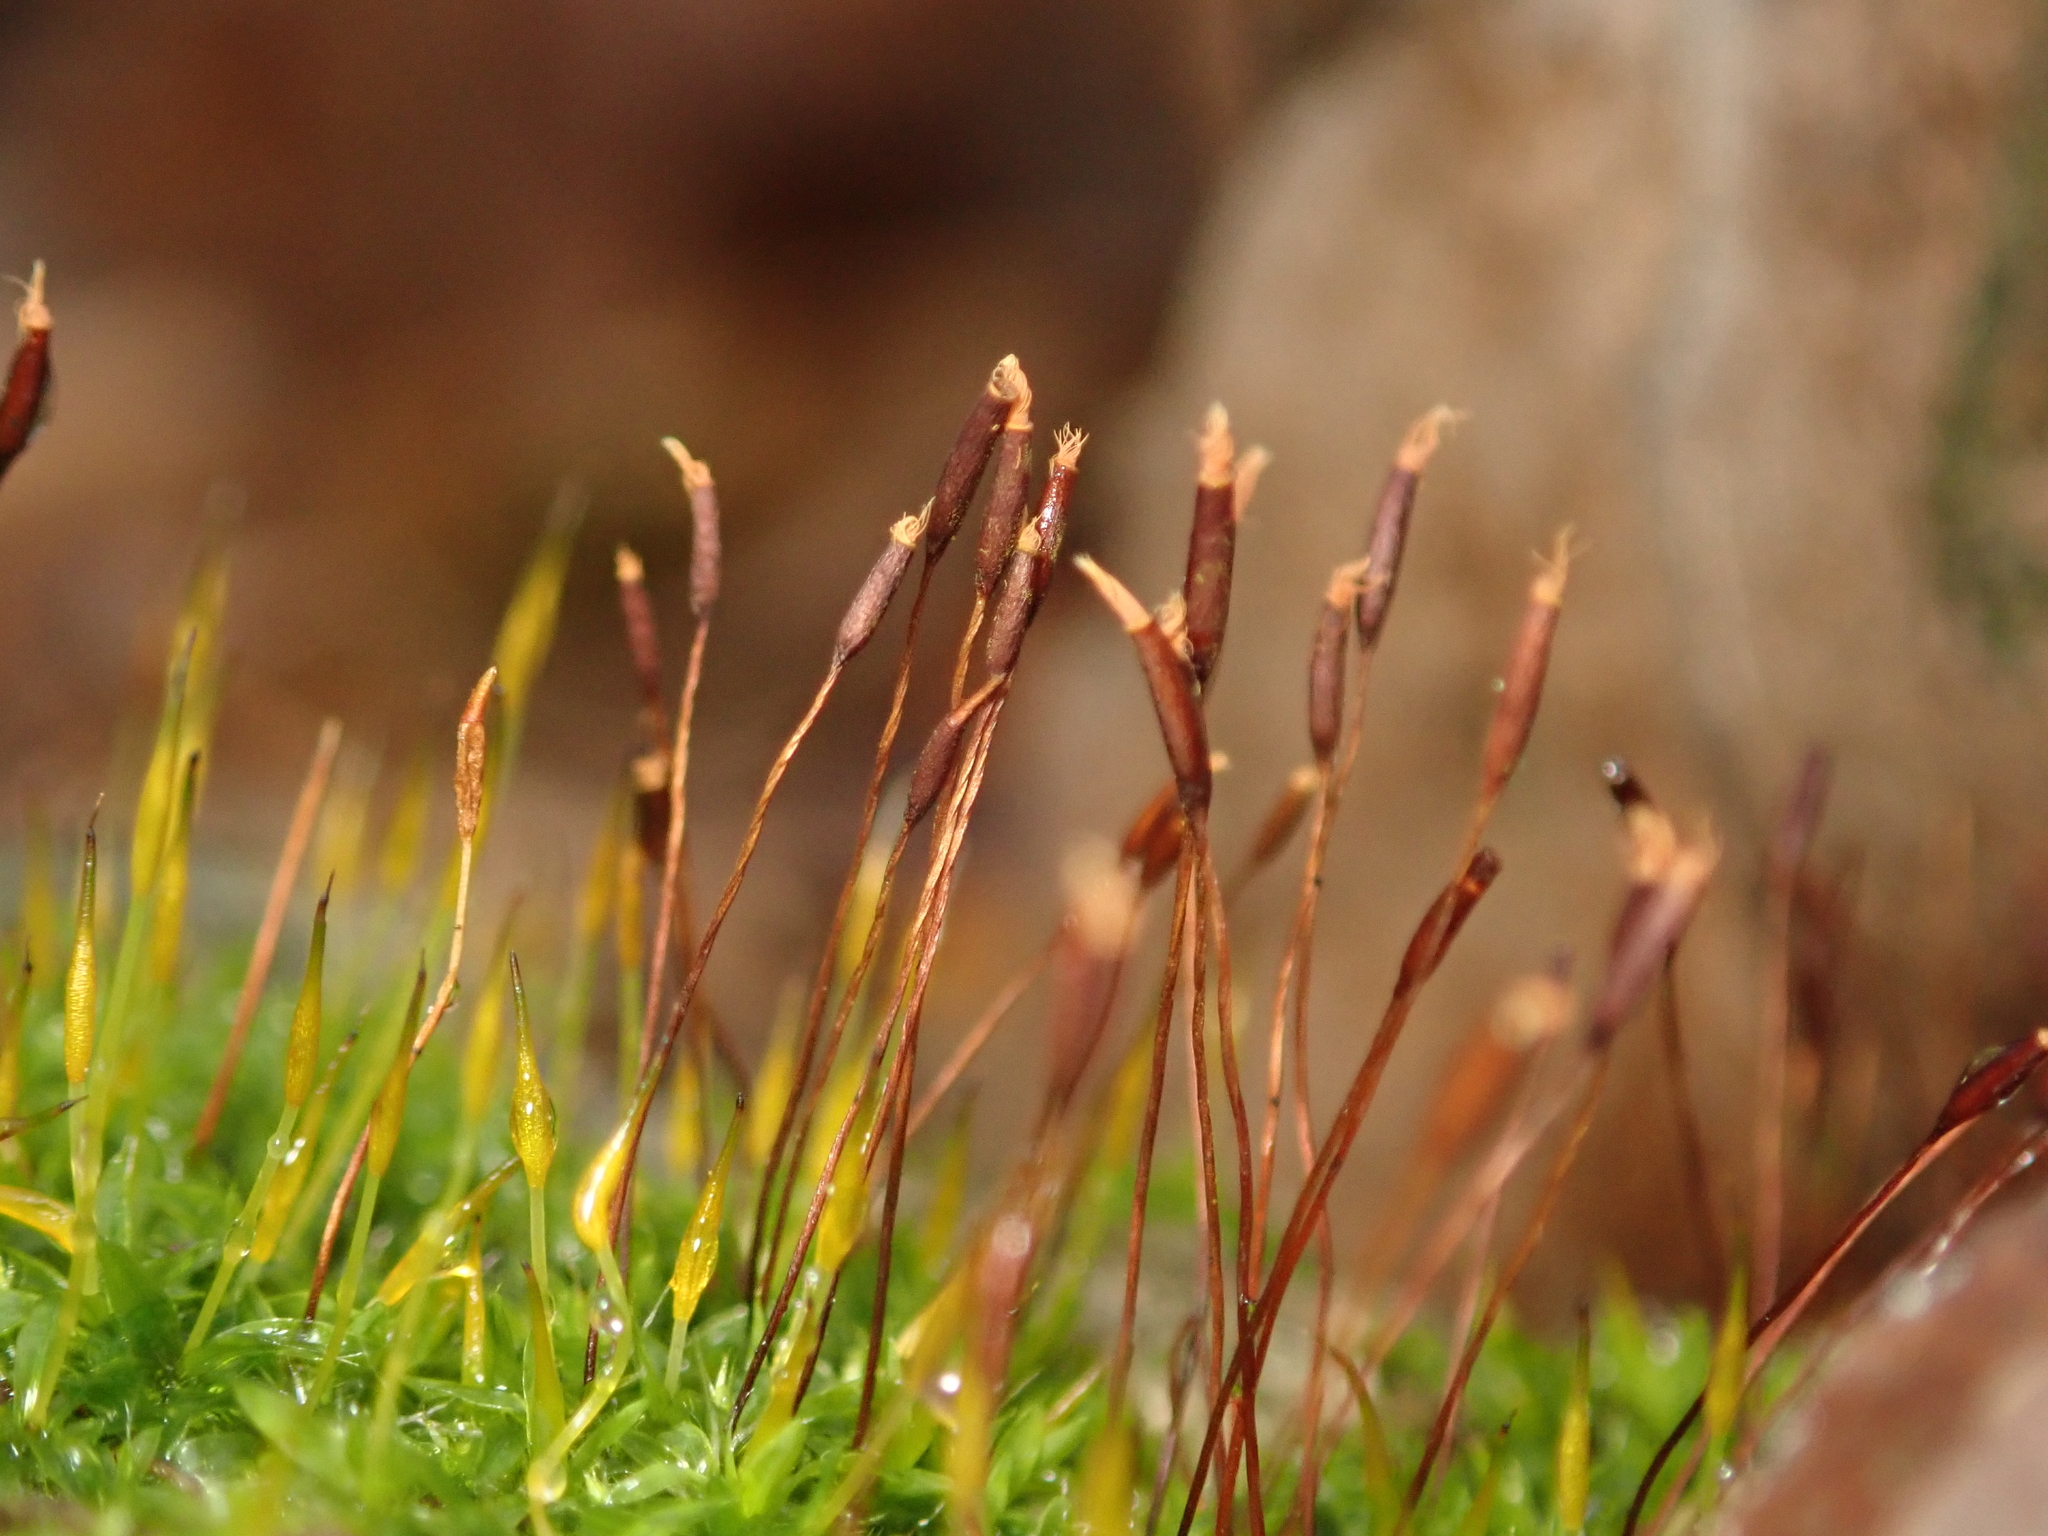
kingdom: Plantae
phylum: Bryophyta
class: Bryopsida
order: Pottiales
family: Pottiaceae
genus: Tortula
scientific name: Tortula muralis
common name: Wall screw-moss
